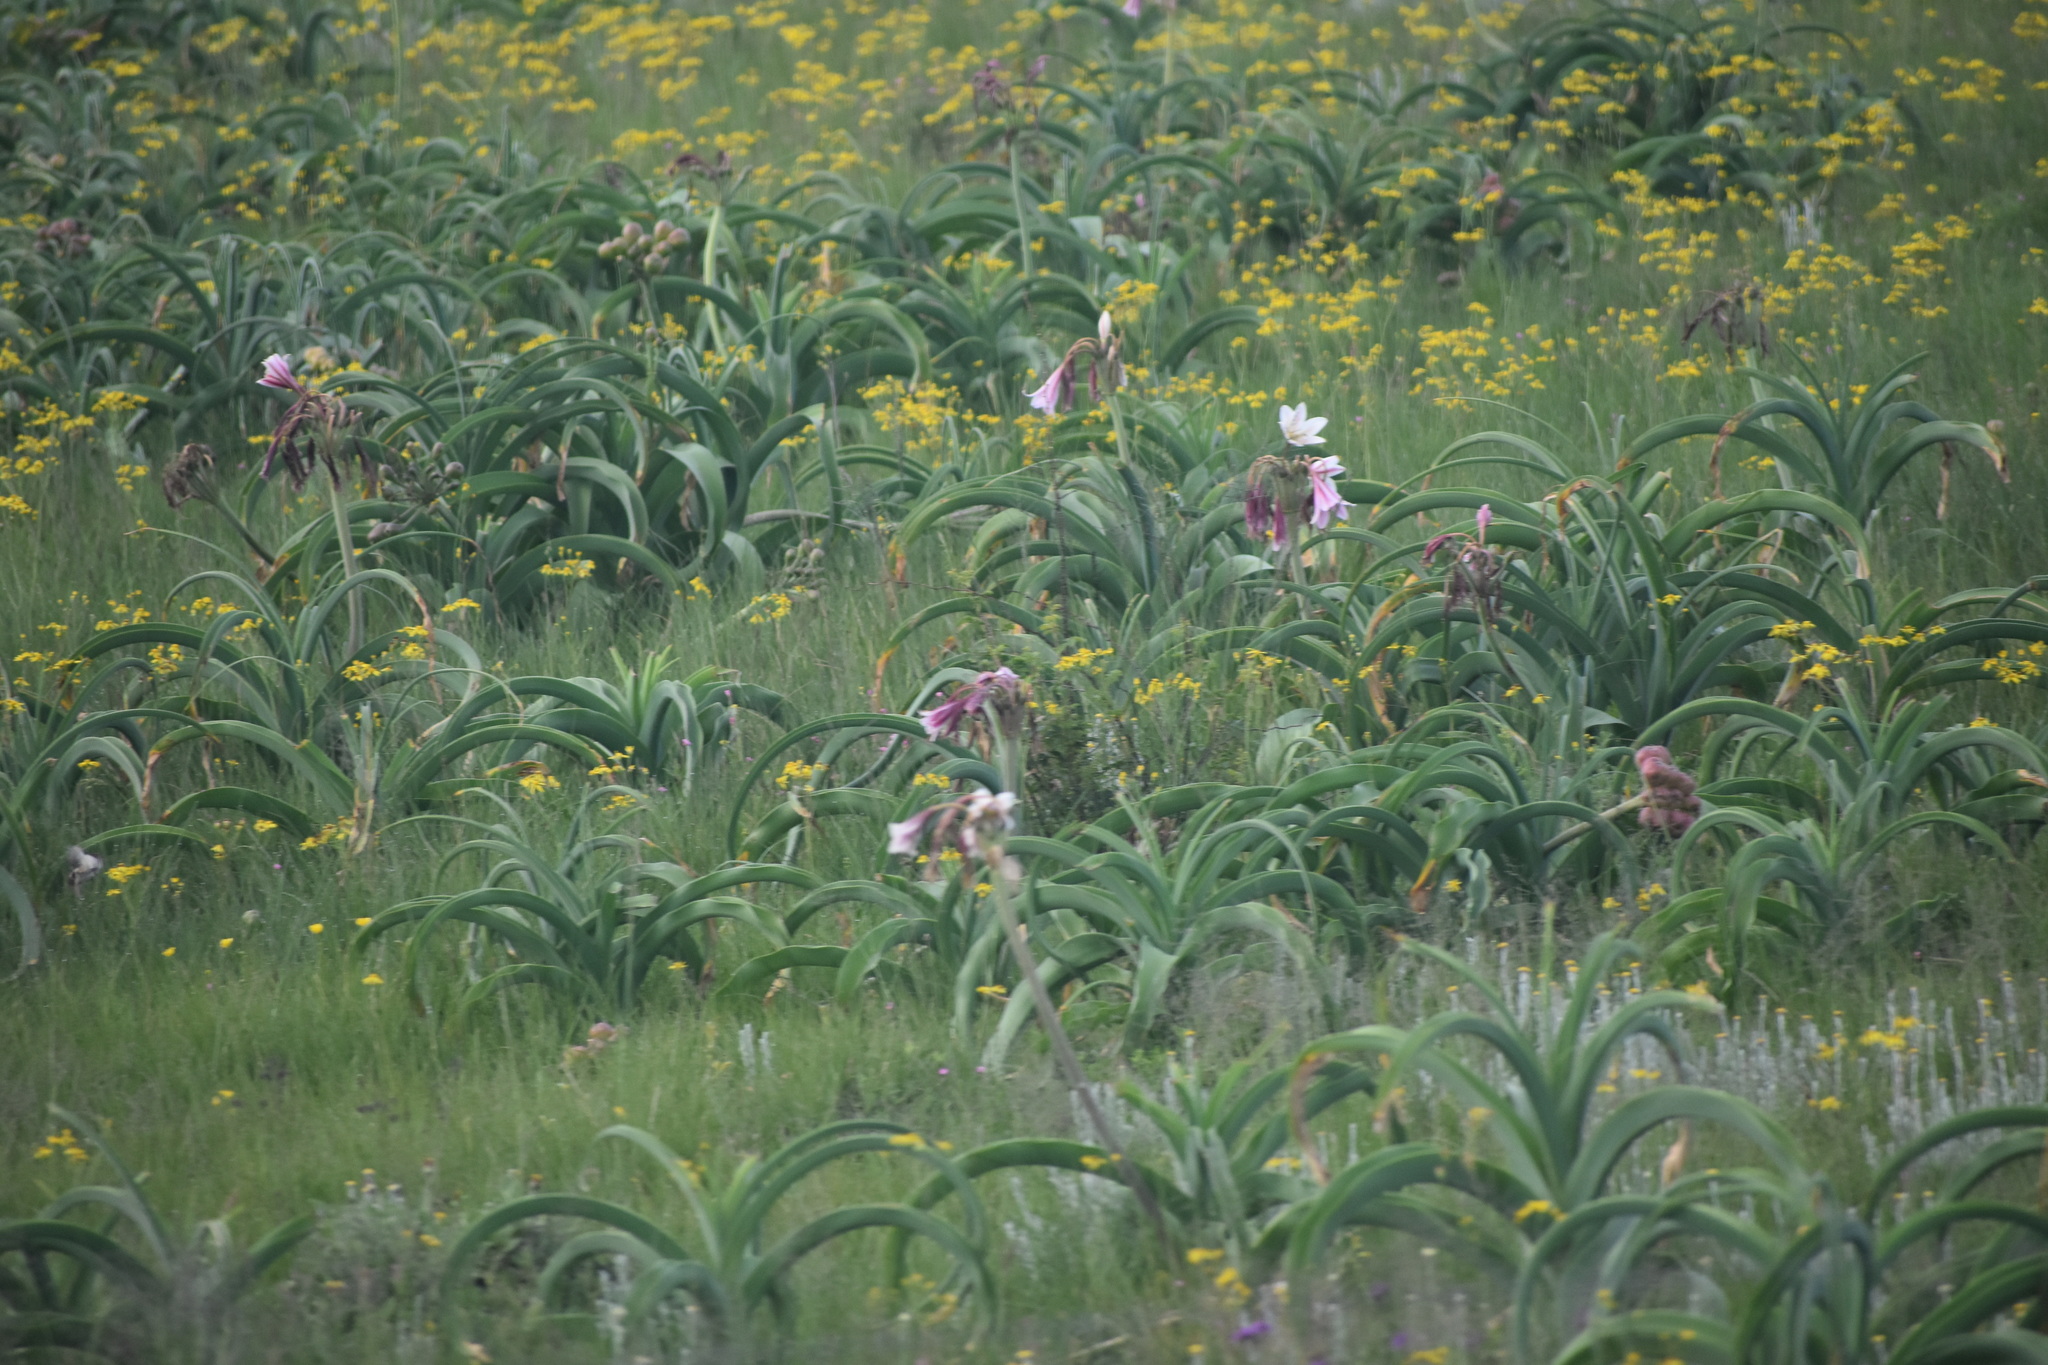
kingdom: Plantae
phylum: Tracheophyta
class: Liliopsida
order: Asparagales
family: Amaryllidaceae
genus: Crinum
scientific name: Crinum bulbispermum
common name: Hardy swamplily
